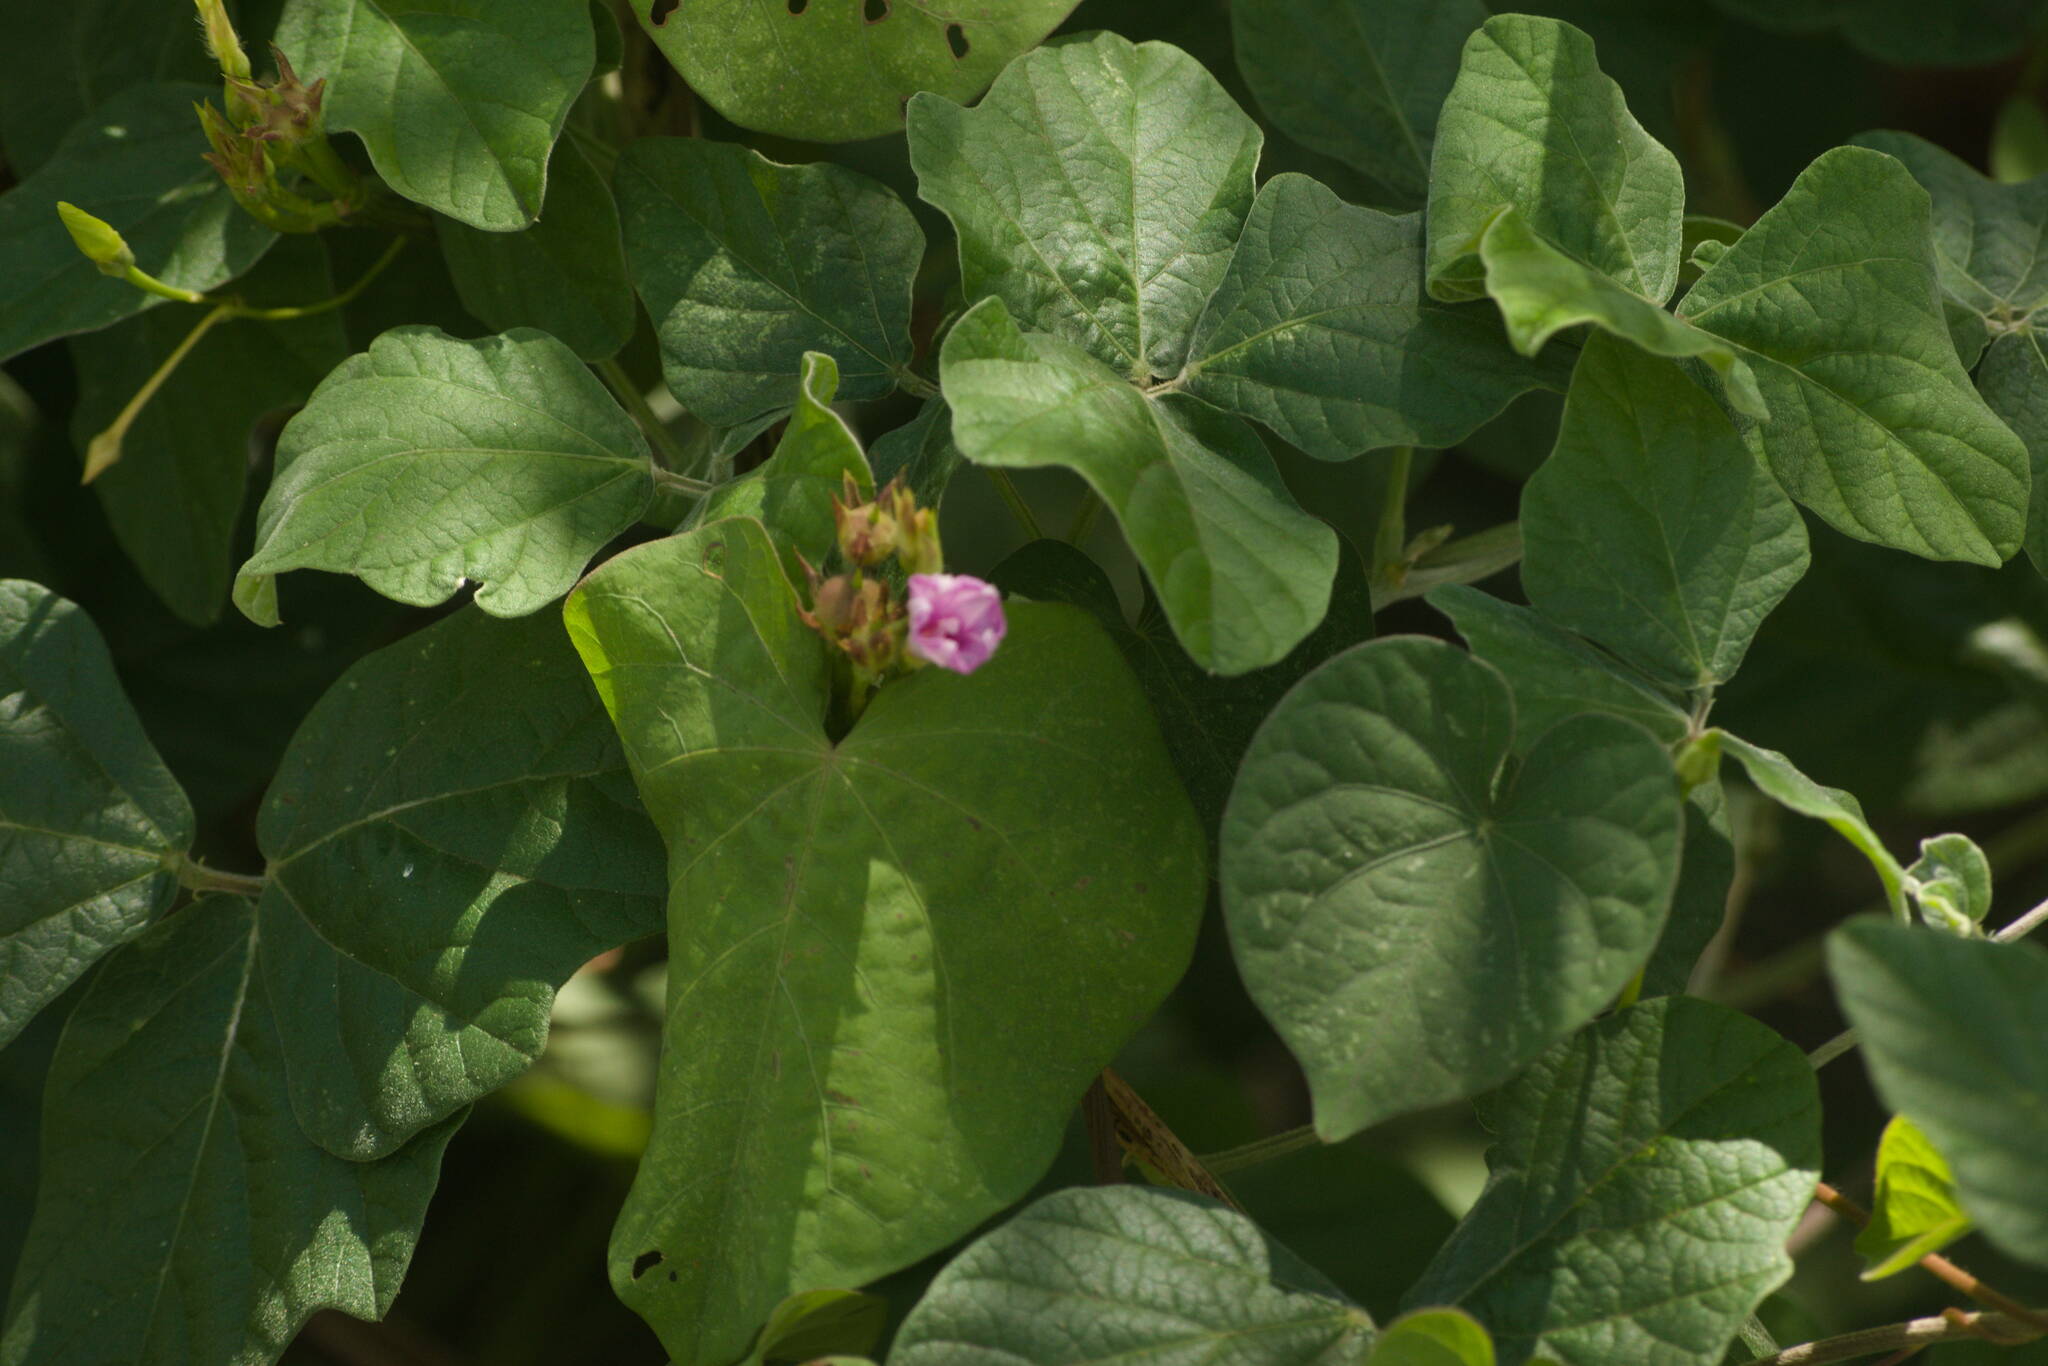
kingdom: Plantae
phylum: Tracheophyta
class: Magnoliopsida
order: Solanales
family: Convolvulaceae
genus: Ipomoea
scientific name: Ipomoea triloba
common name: Little-bell
